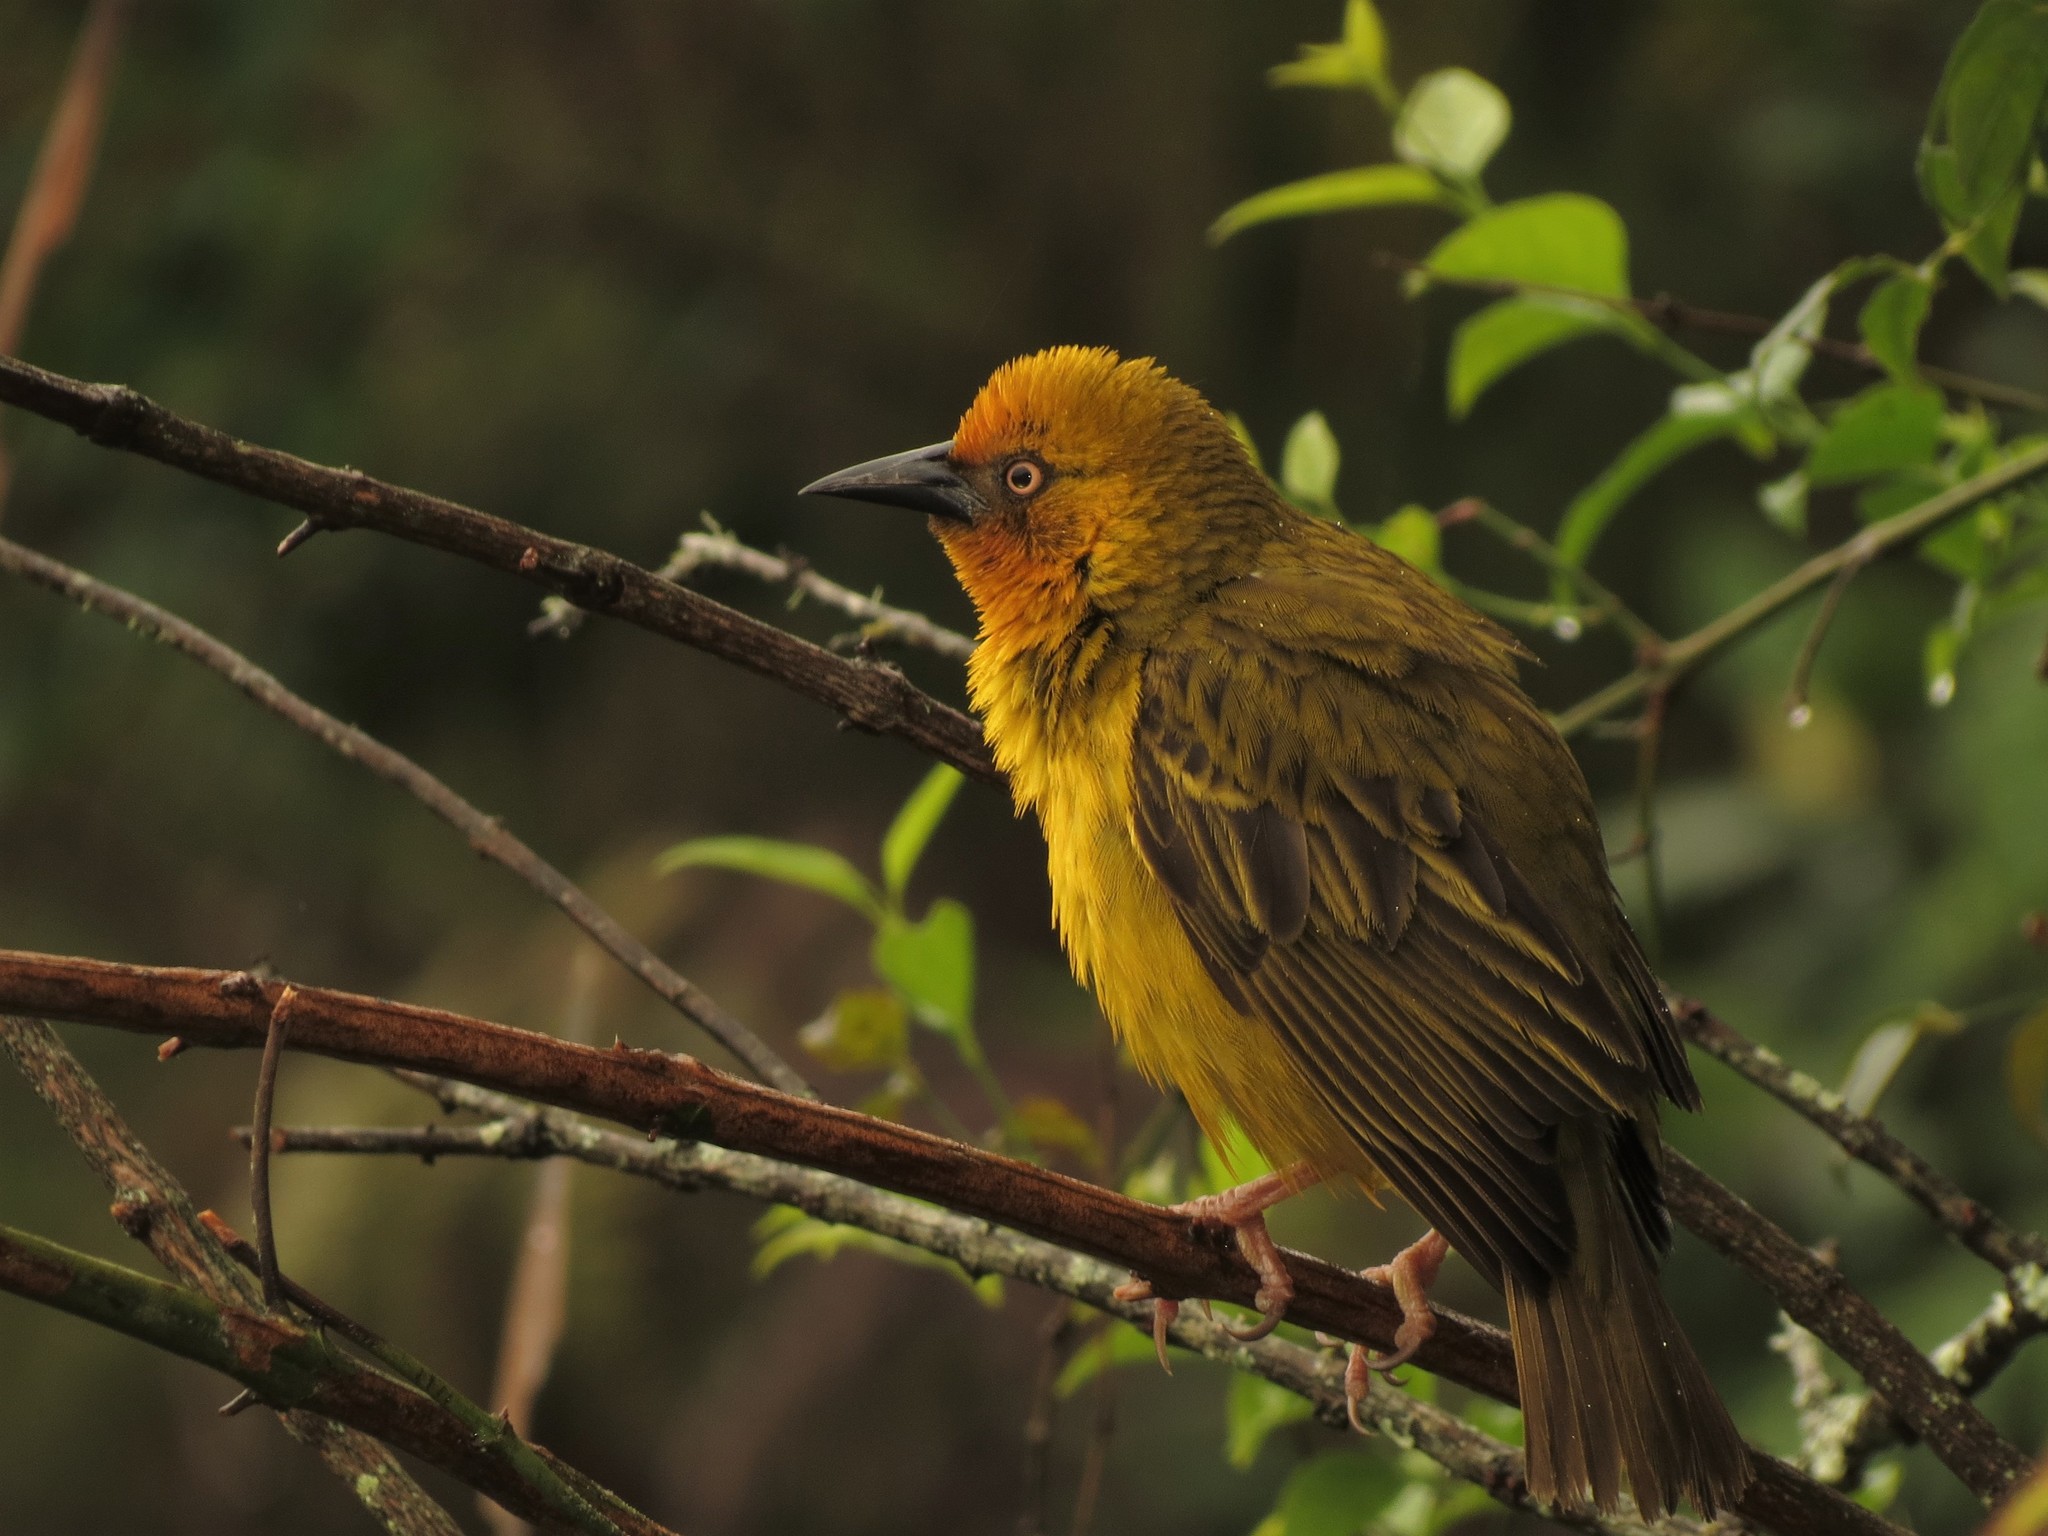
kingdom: Animalia
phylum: Chordata
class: Aves
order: Passeriformes
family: Ploceidae
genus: Ploceus
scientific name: Ploceus capensis
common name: Cape weaver
